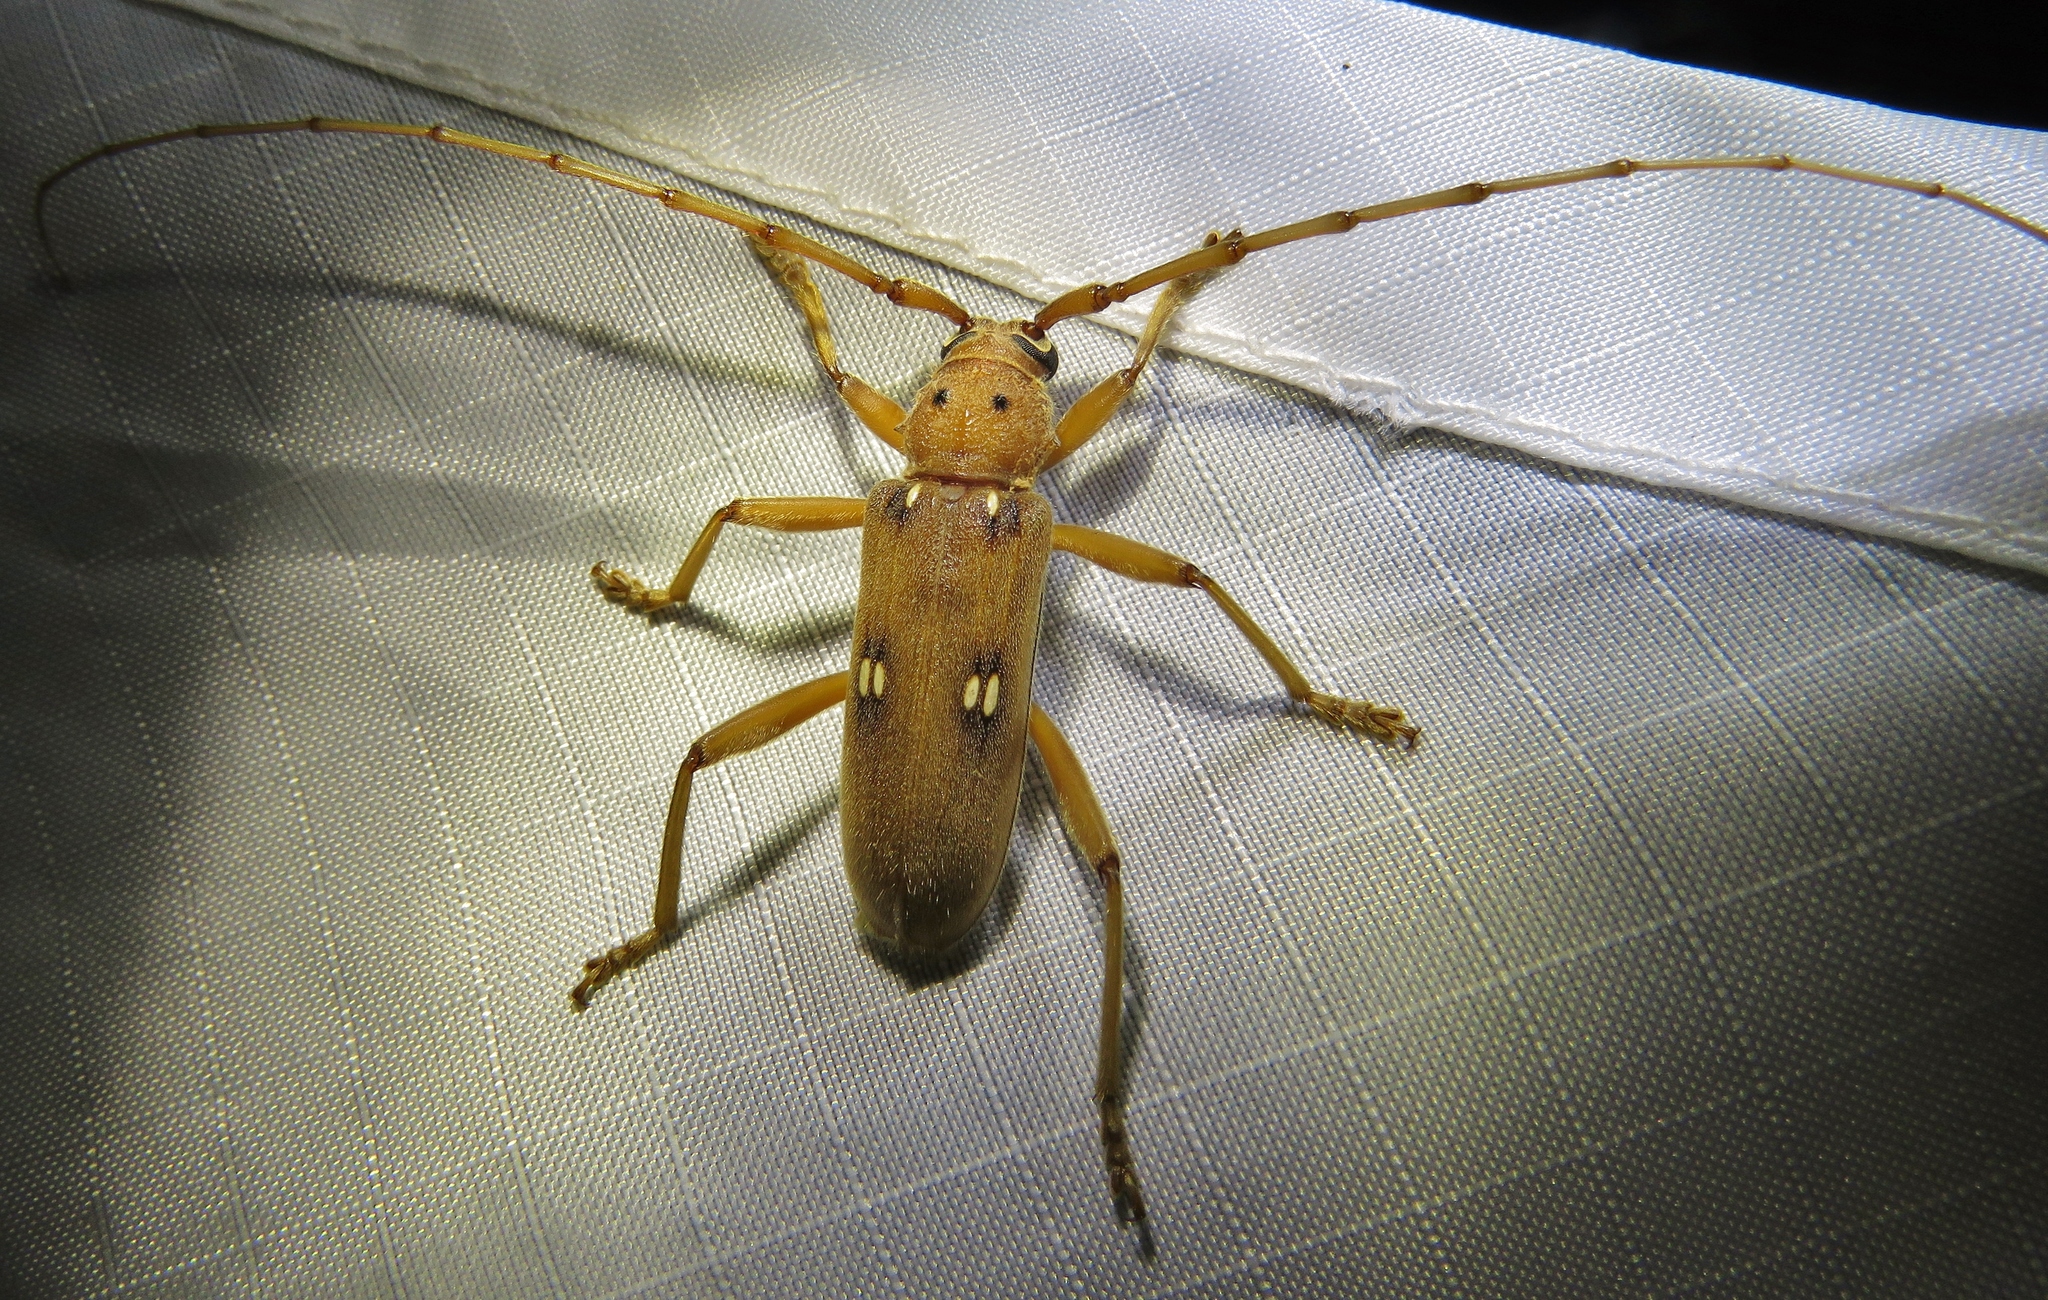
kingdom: Animalia
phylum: Arthropoda
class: Insecta
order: Coleoptera
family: Cerambycidae
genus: Eburia
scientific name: Eburia mutica
